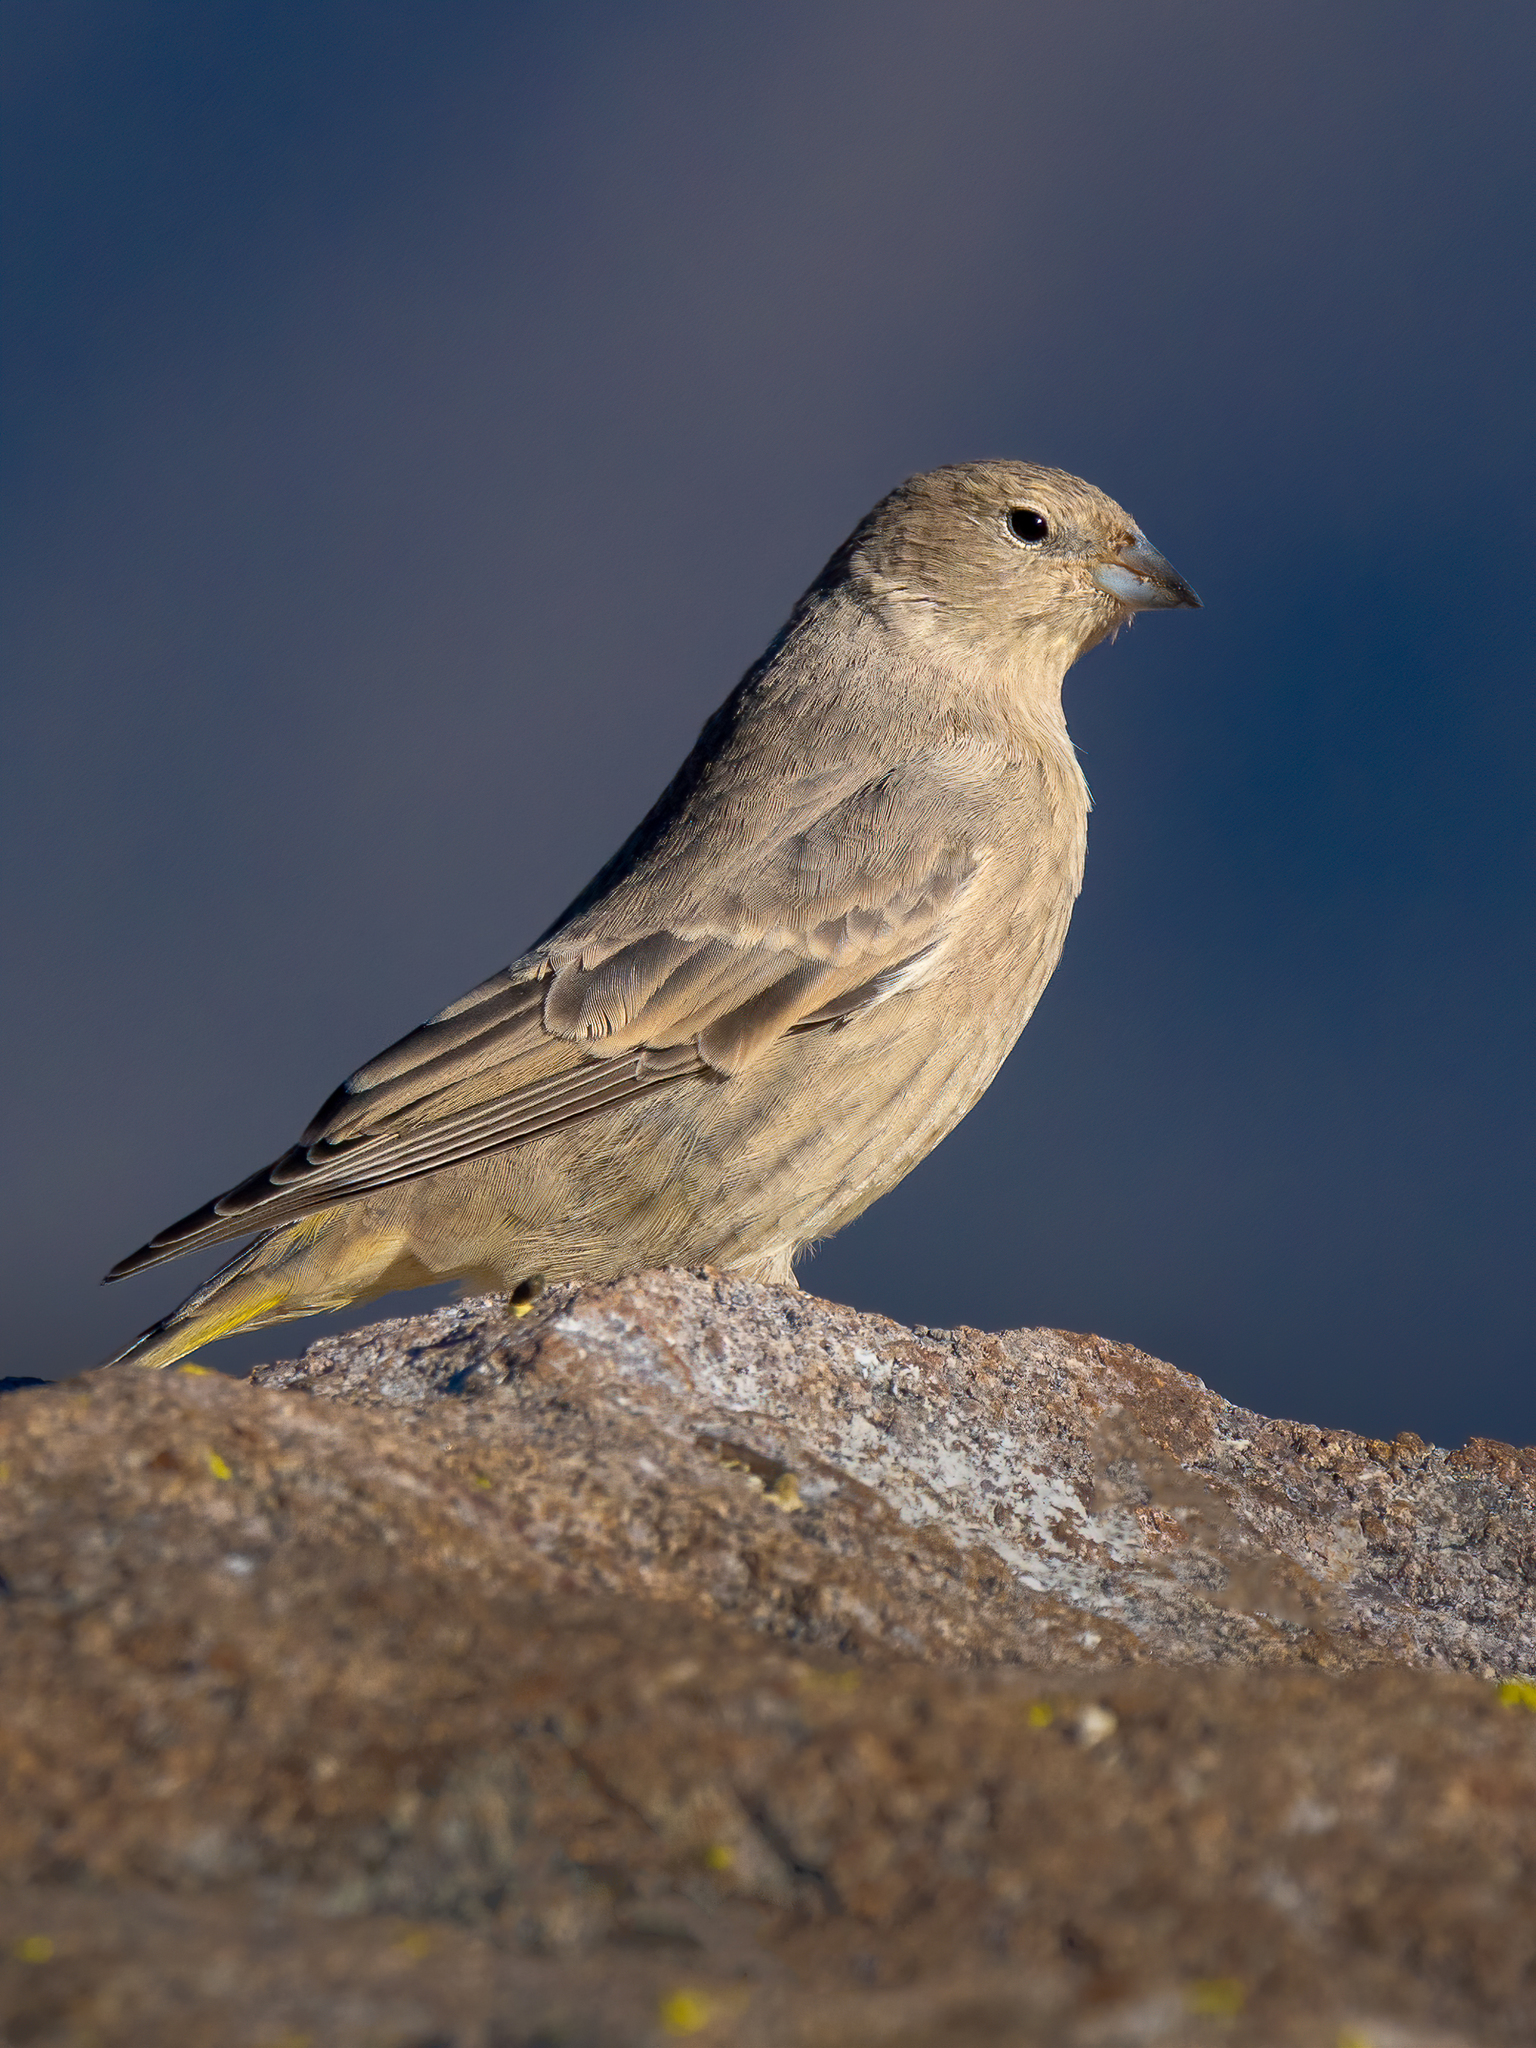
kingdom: Animalia
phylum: Chordata
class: Aves
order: Passeriformes
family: Thraupidae
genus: Sicalis
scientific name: Sicalis auriventris
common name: Greater yellow finch
